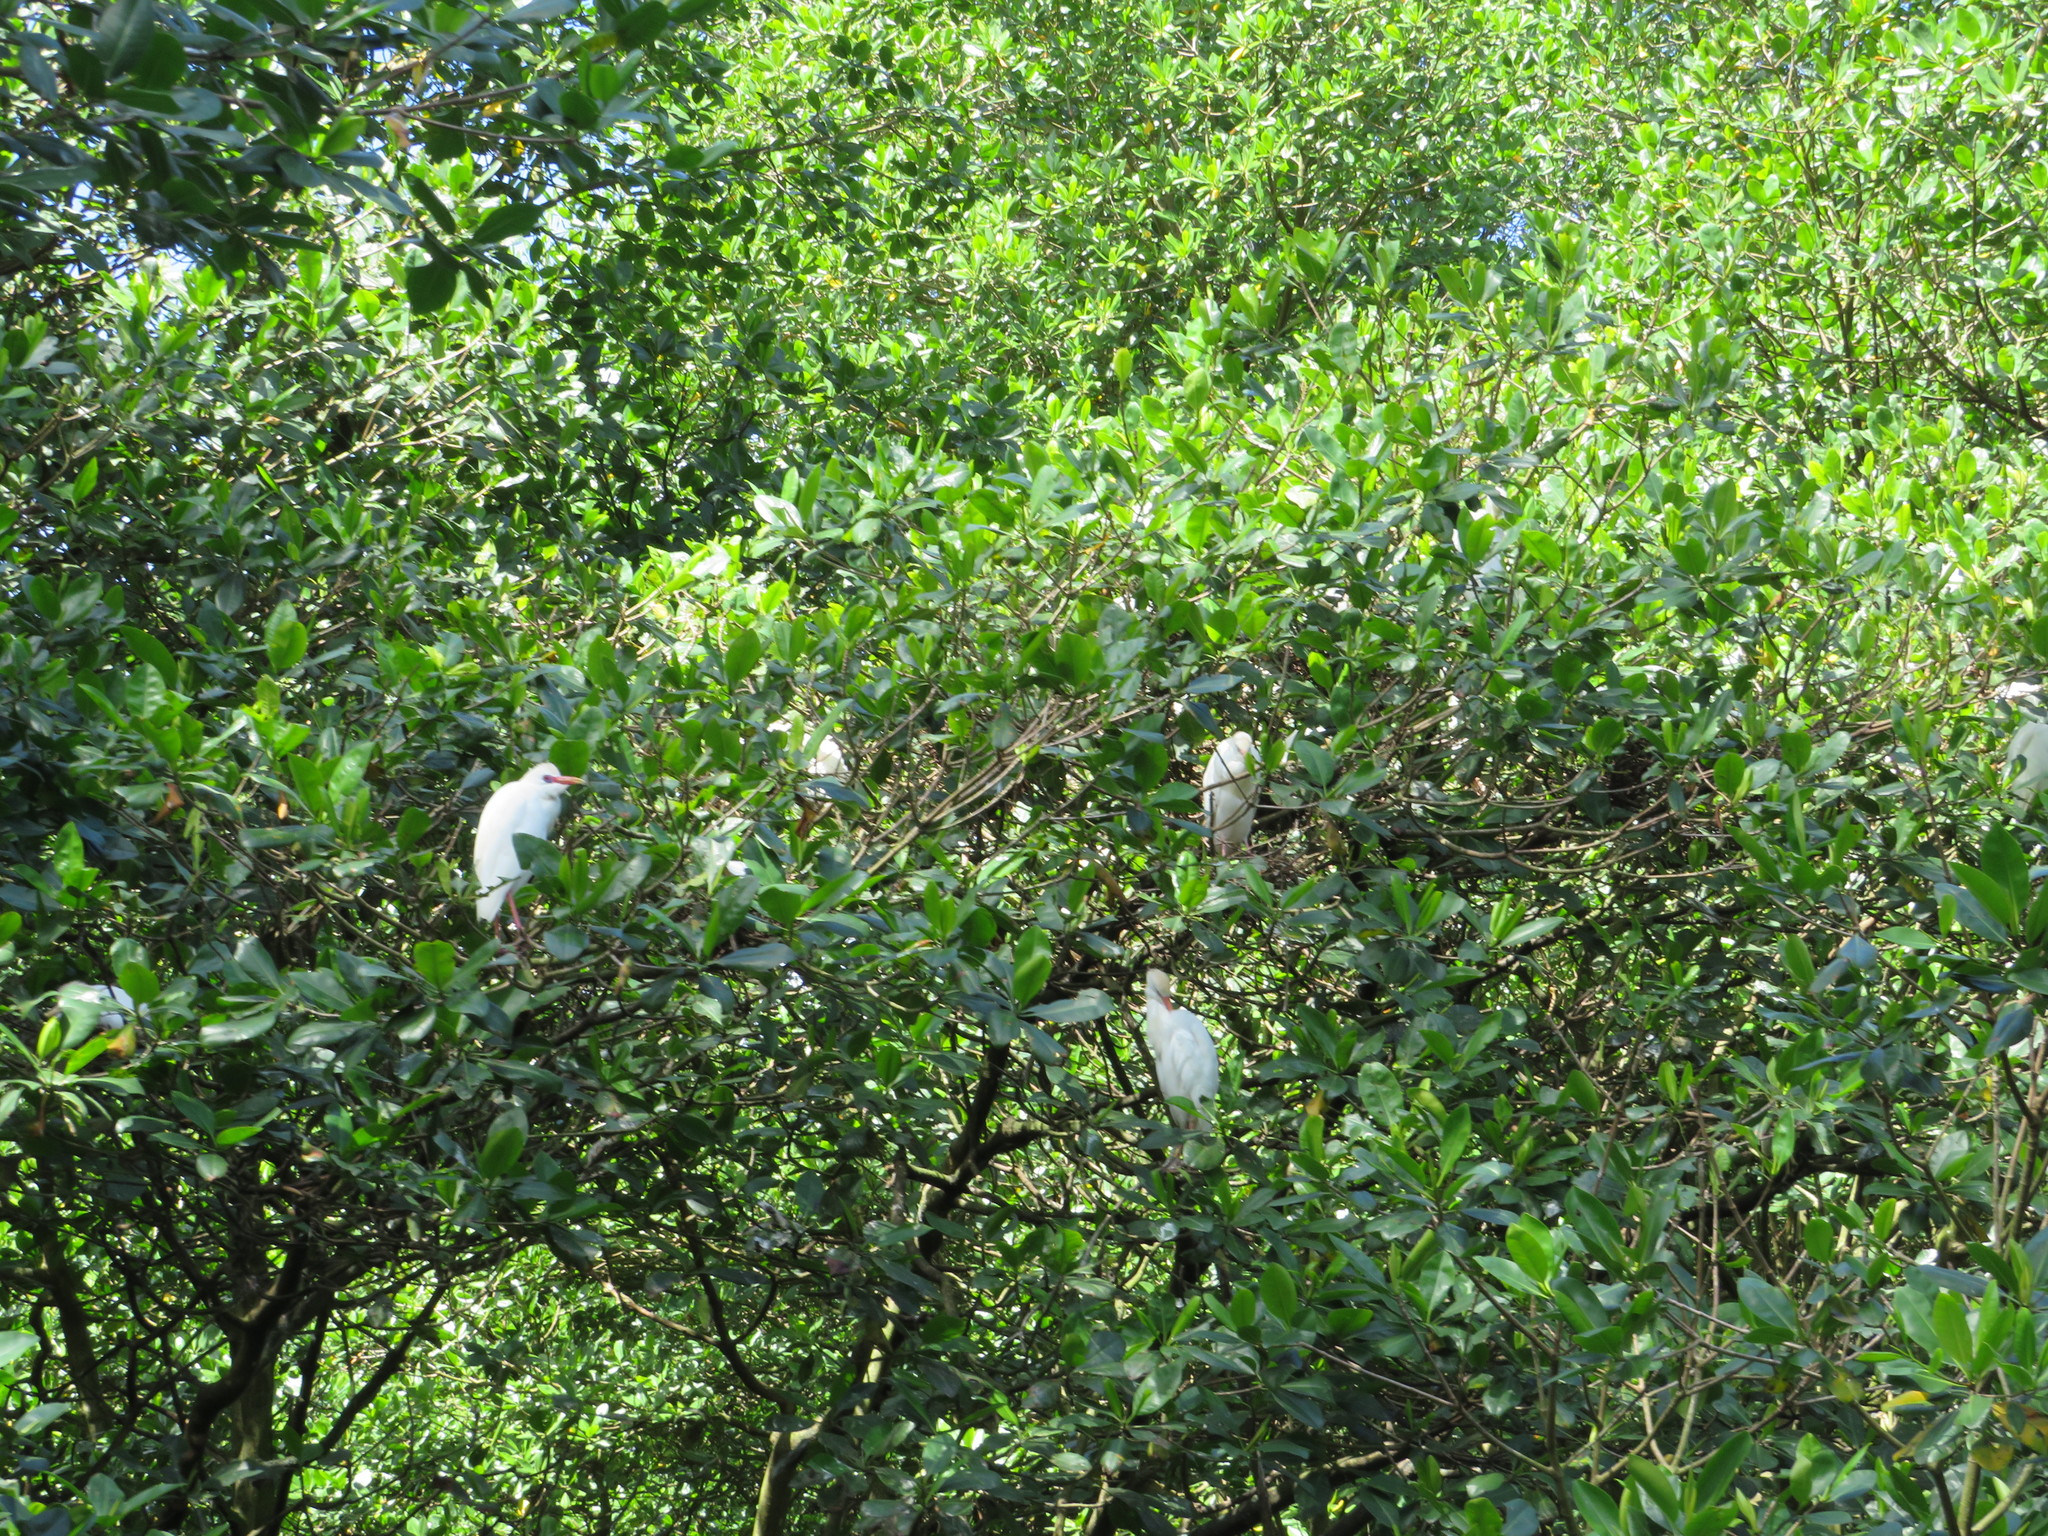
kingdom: Animalia
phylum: Chordata
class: Aves
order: Pelecaniformes
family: Ardeidae
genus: Bubulcus
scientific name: Bubulcus ibis
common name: Cattle egret
